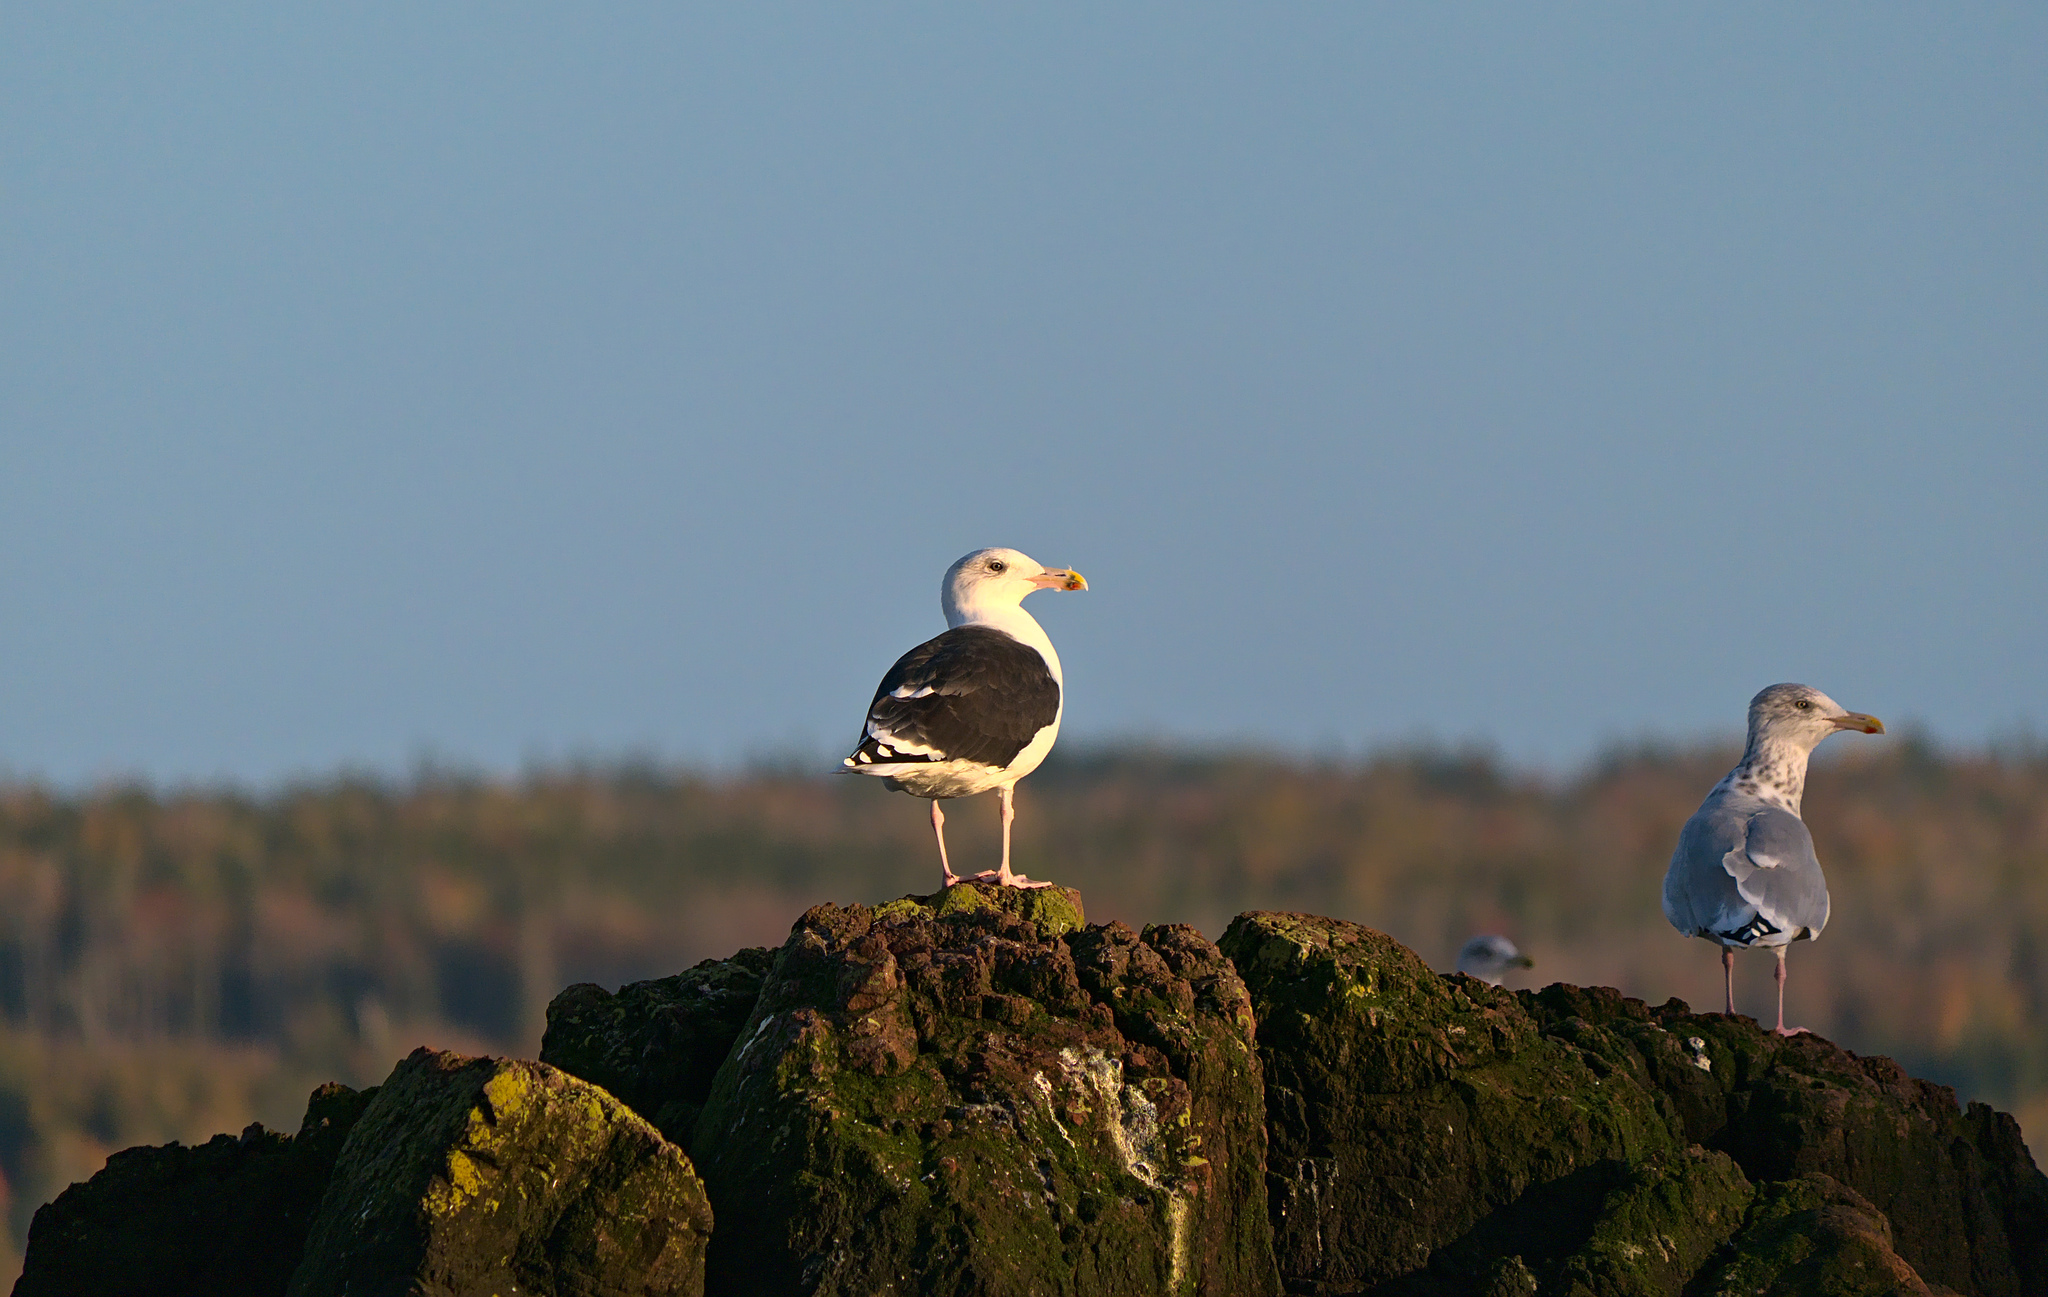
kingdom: Animalia
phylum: Chordata
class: Aves
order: Charadriiformes
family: Laridae
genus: Larus
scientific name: Larus marinus
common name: Great black-backed gull
